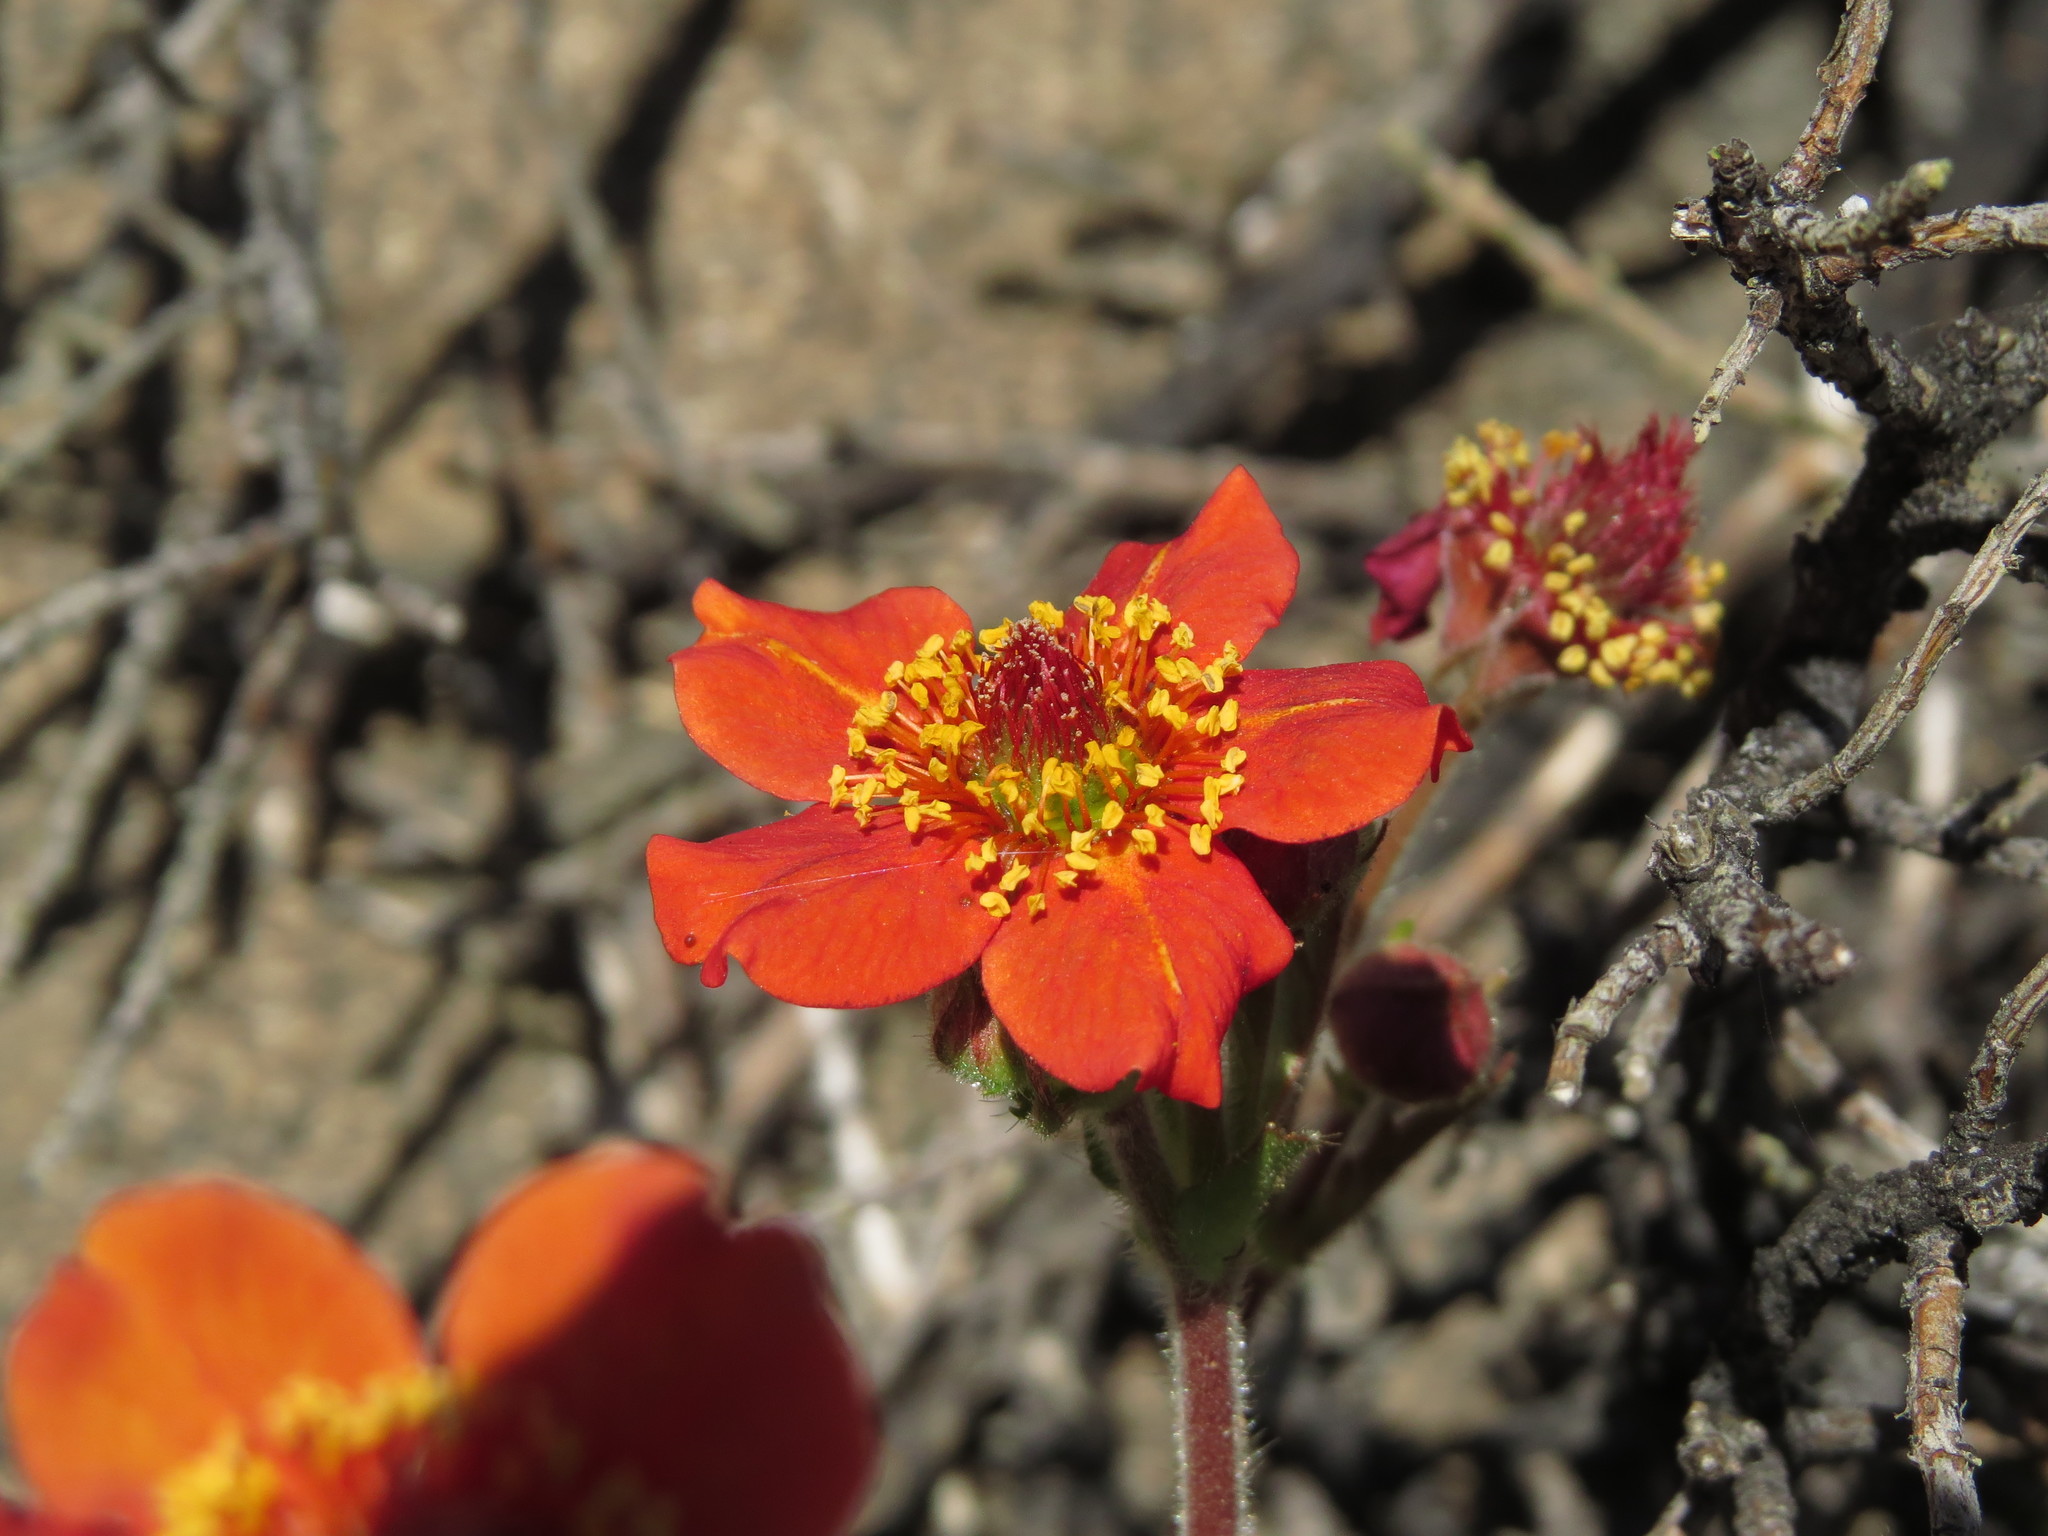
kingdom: Plantae
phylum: Tracheophyta
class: Magnoliopsida
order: Rosales
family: Rosaceae
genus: Geum
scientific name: Geum quellyon
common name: Scarlet avens
